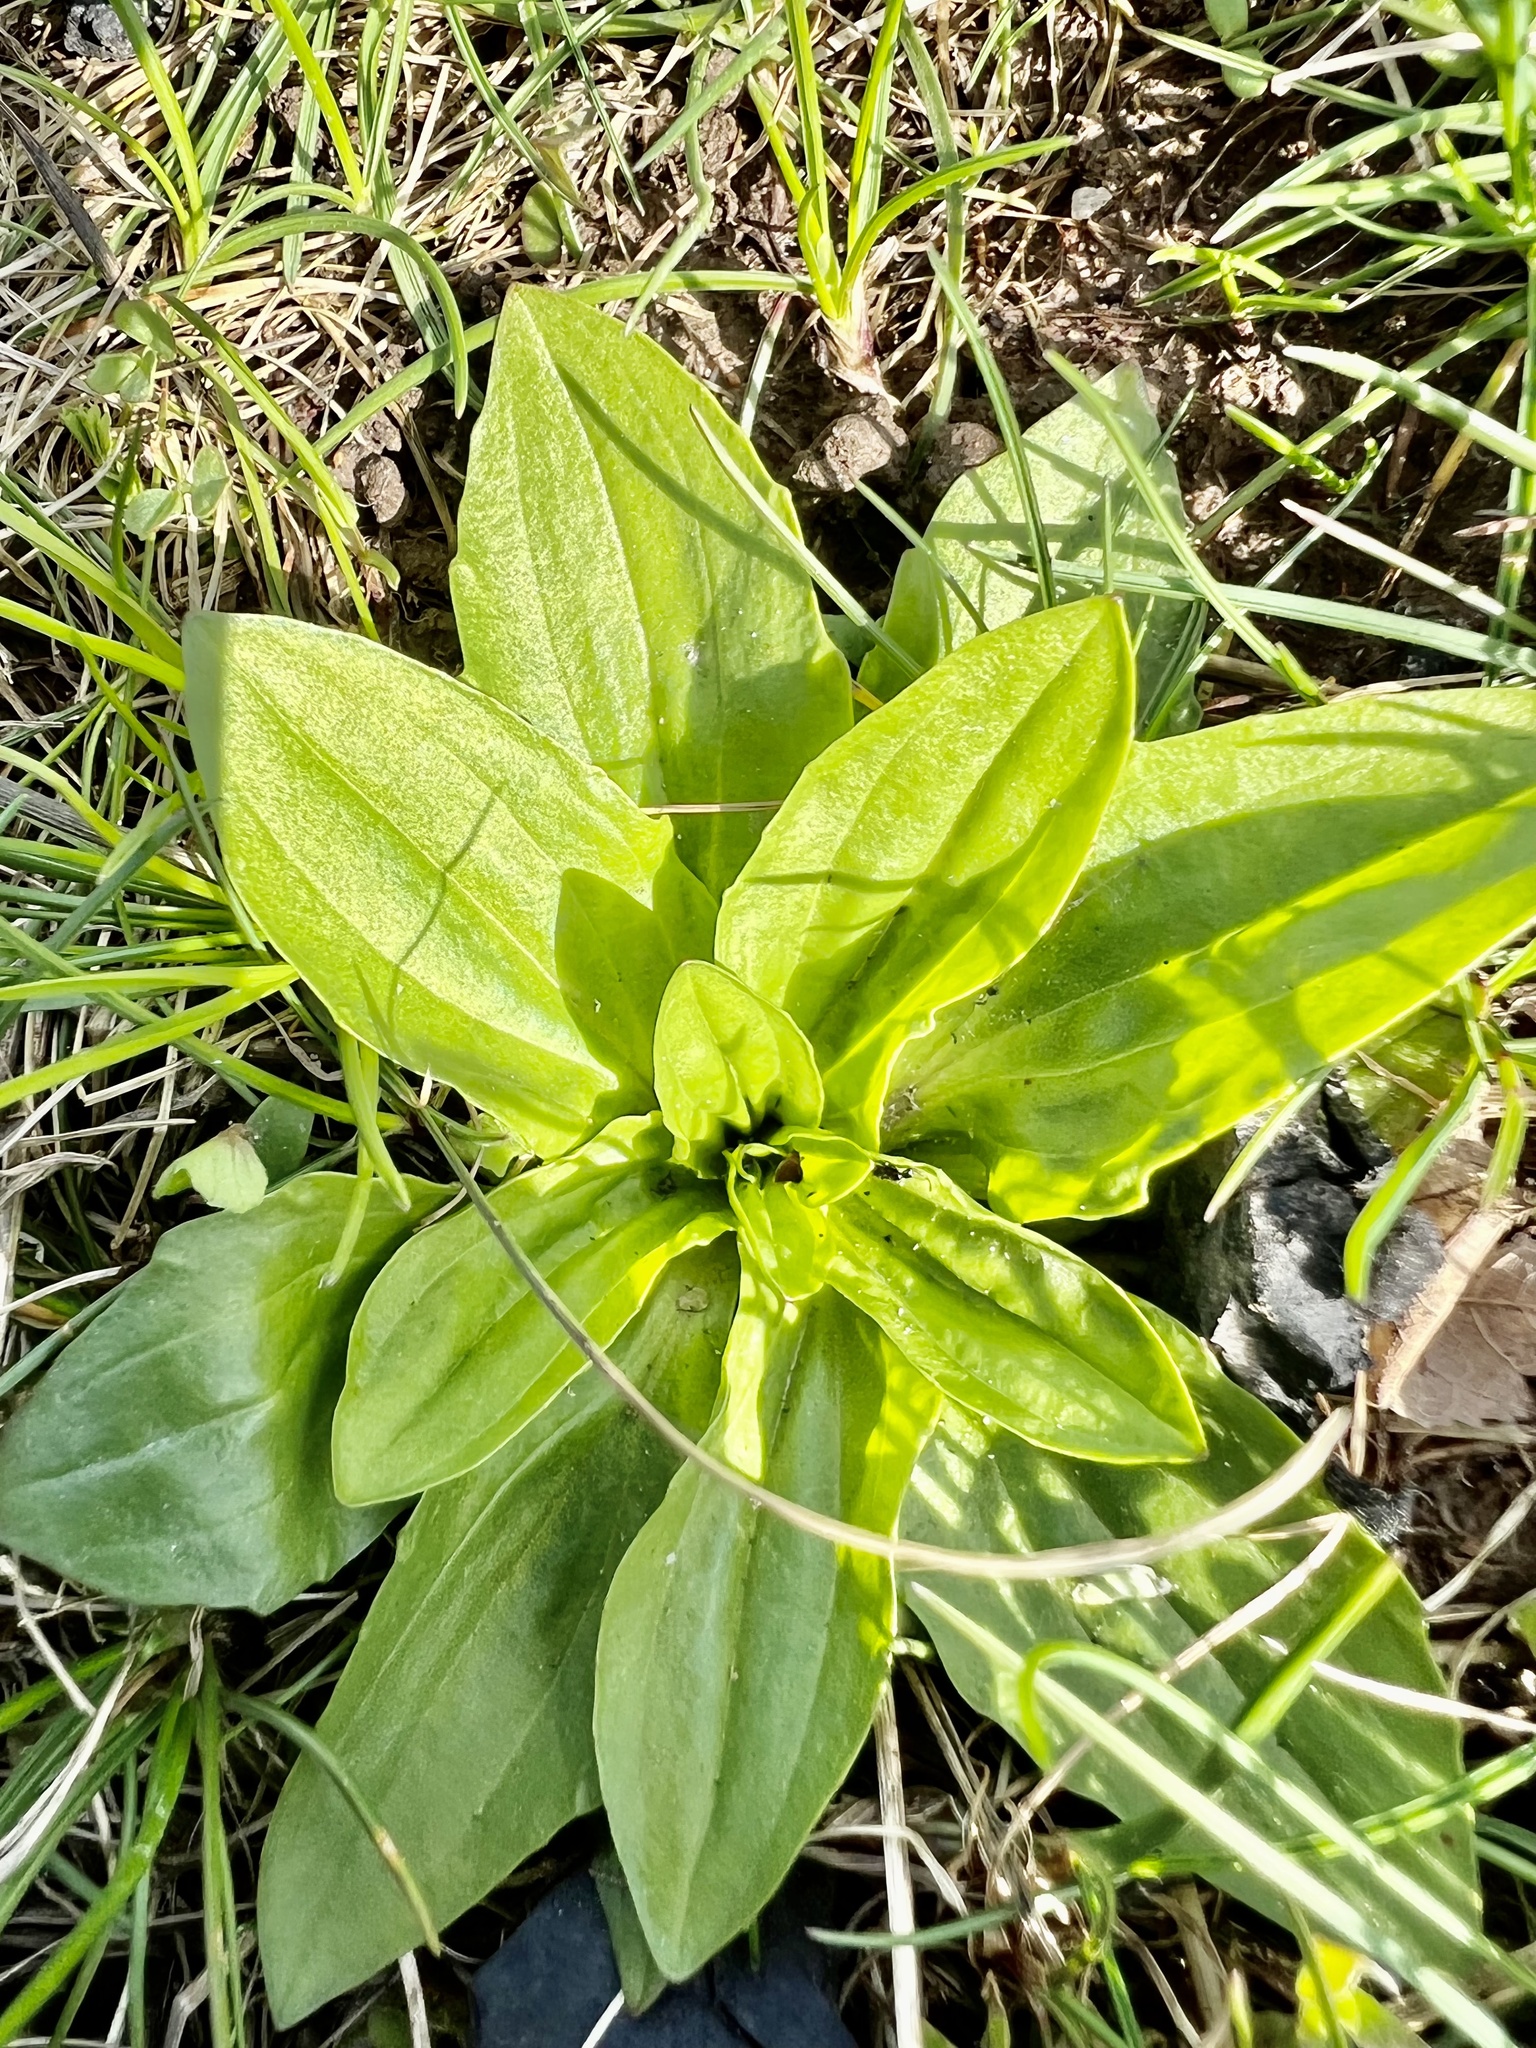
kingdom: Plantae
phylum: Tracheophyta
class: Magnoliopsida
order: Lamiales
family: Plantaginaceae
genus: Plantago
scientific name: Plantago rugelii
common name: American plantain
